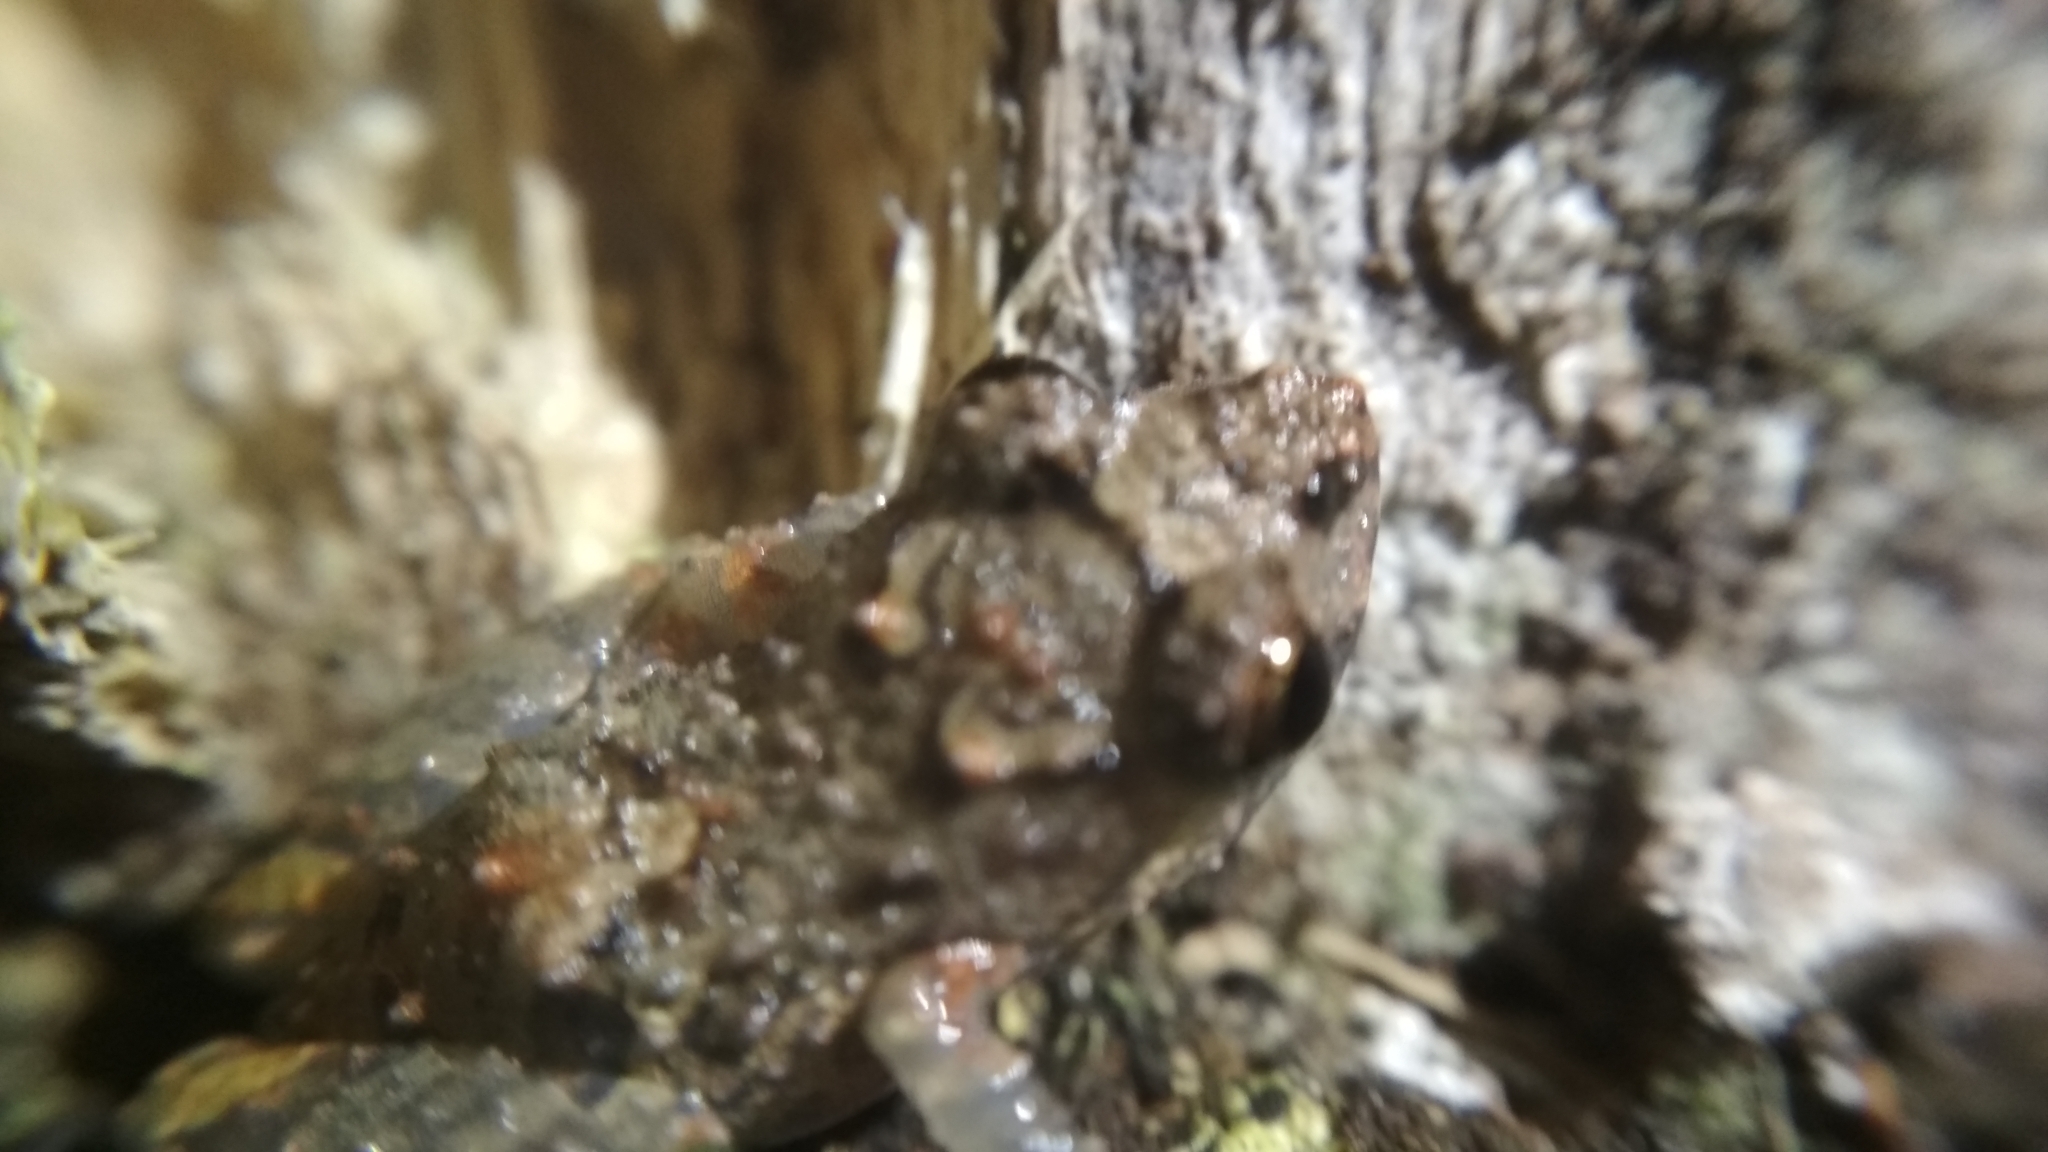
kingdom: Animalia
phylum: Chordata
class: Amphibia
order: Anura
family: Craugastoridae
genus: Pristimantis
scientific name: Pristimantis brevicrus
